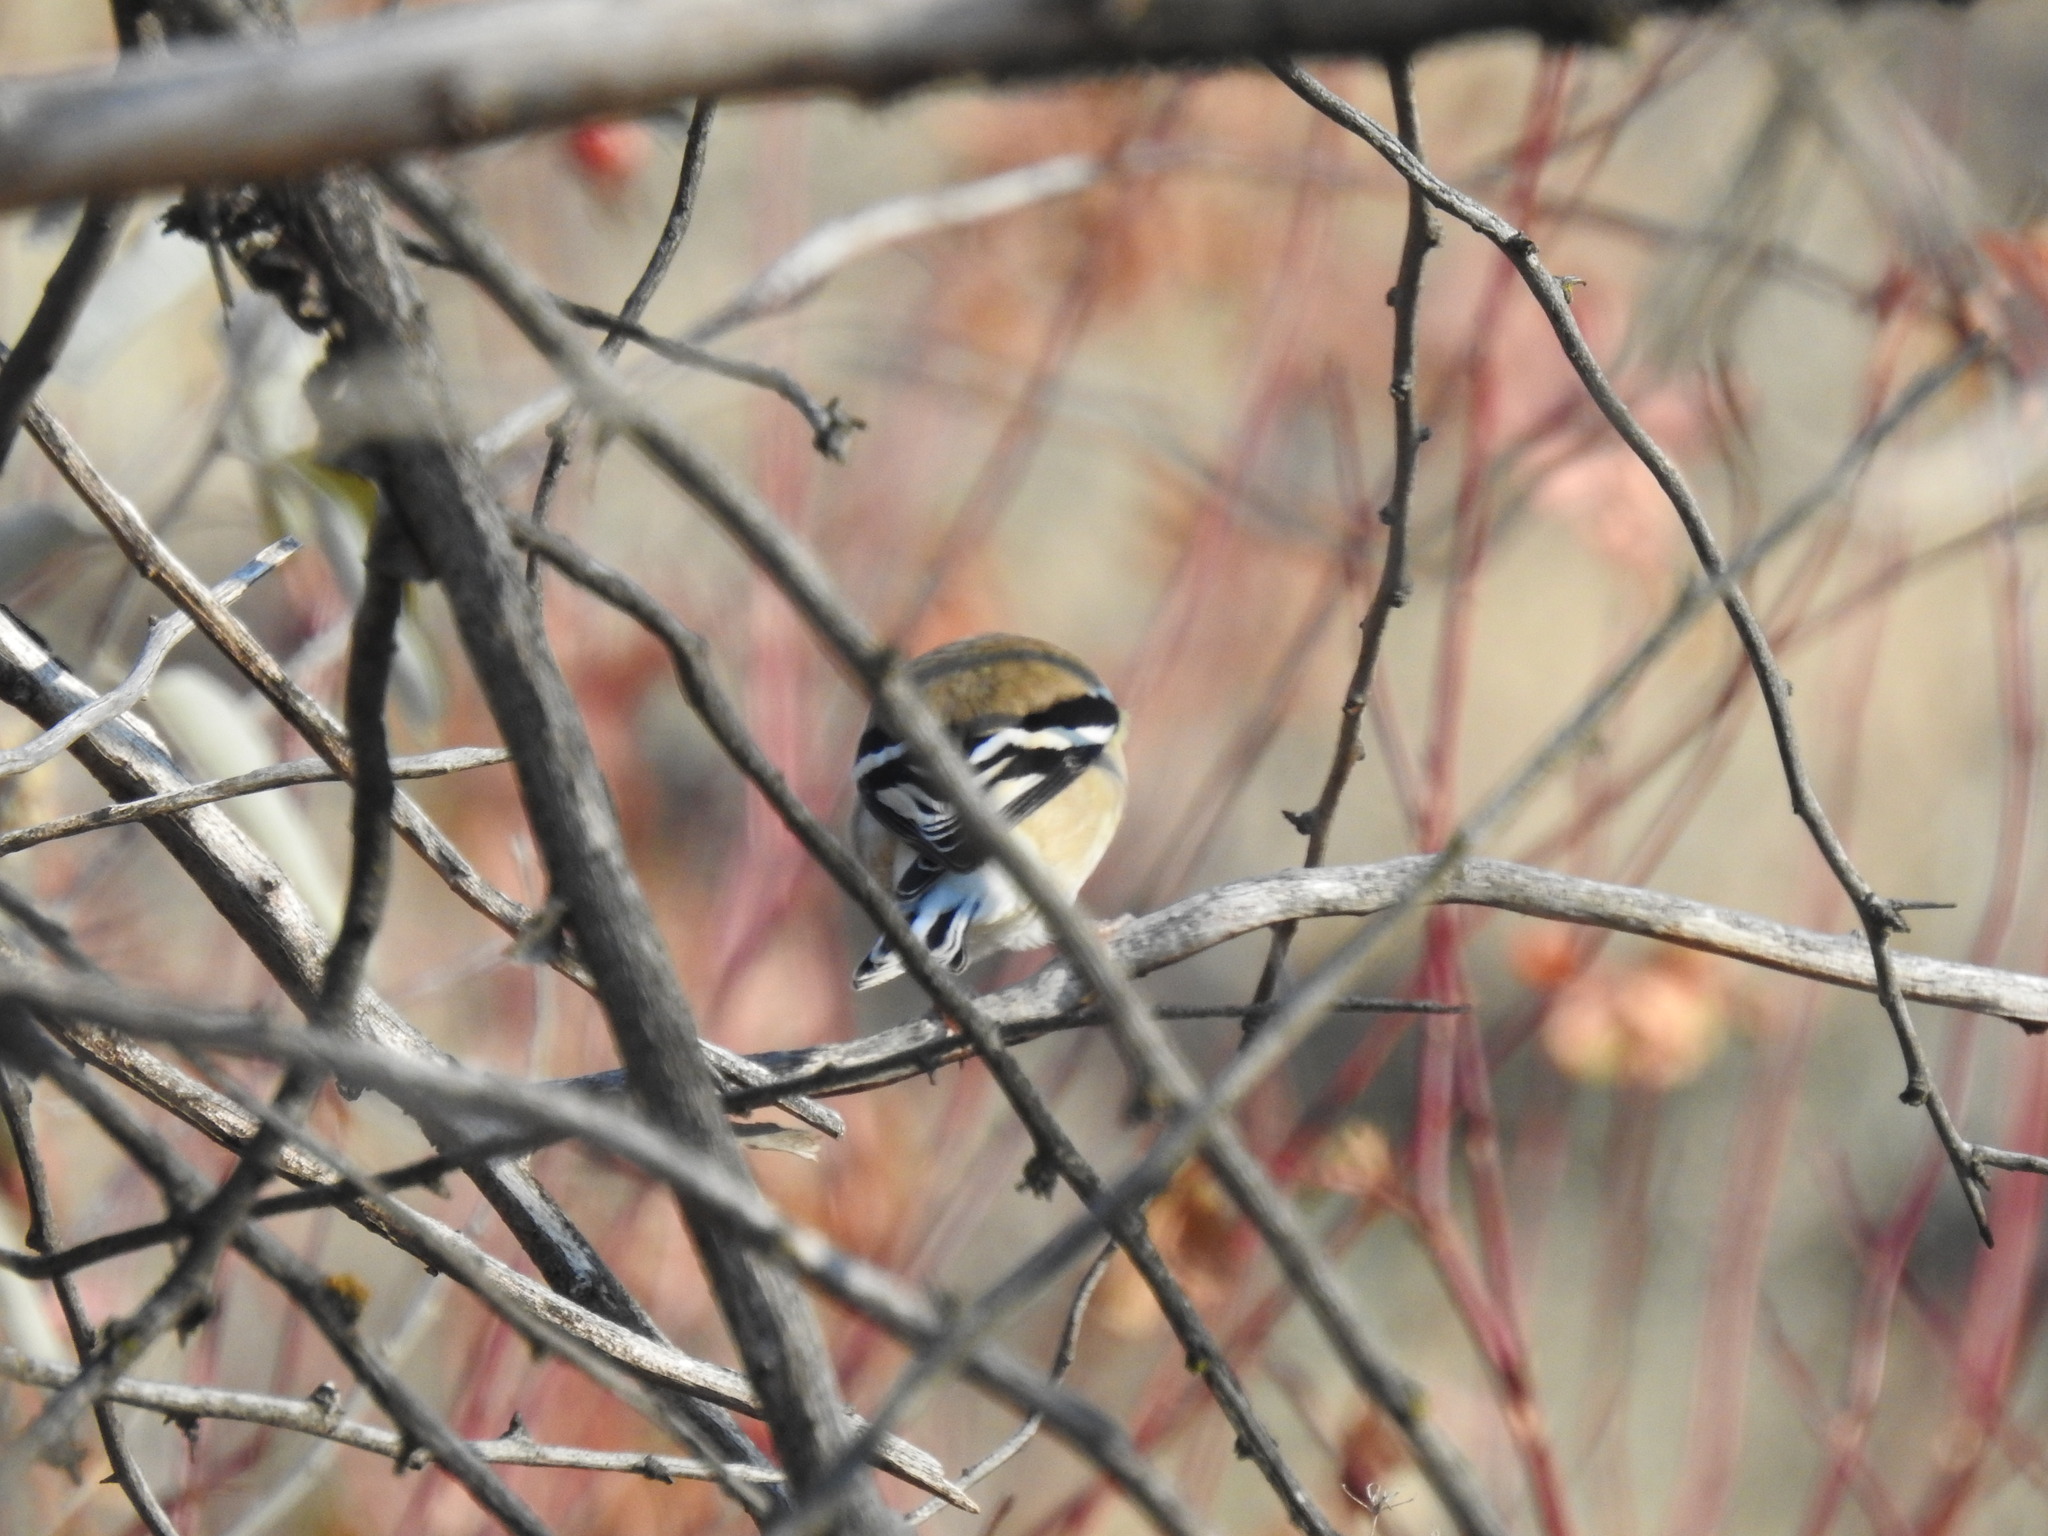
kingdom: Animalia
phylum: Chordata
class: Aves
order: Passeriformes
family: Fringillidae
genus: Spinus
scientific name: Spinus tristis
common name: American goldfinch
